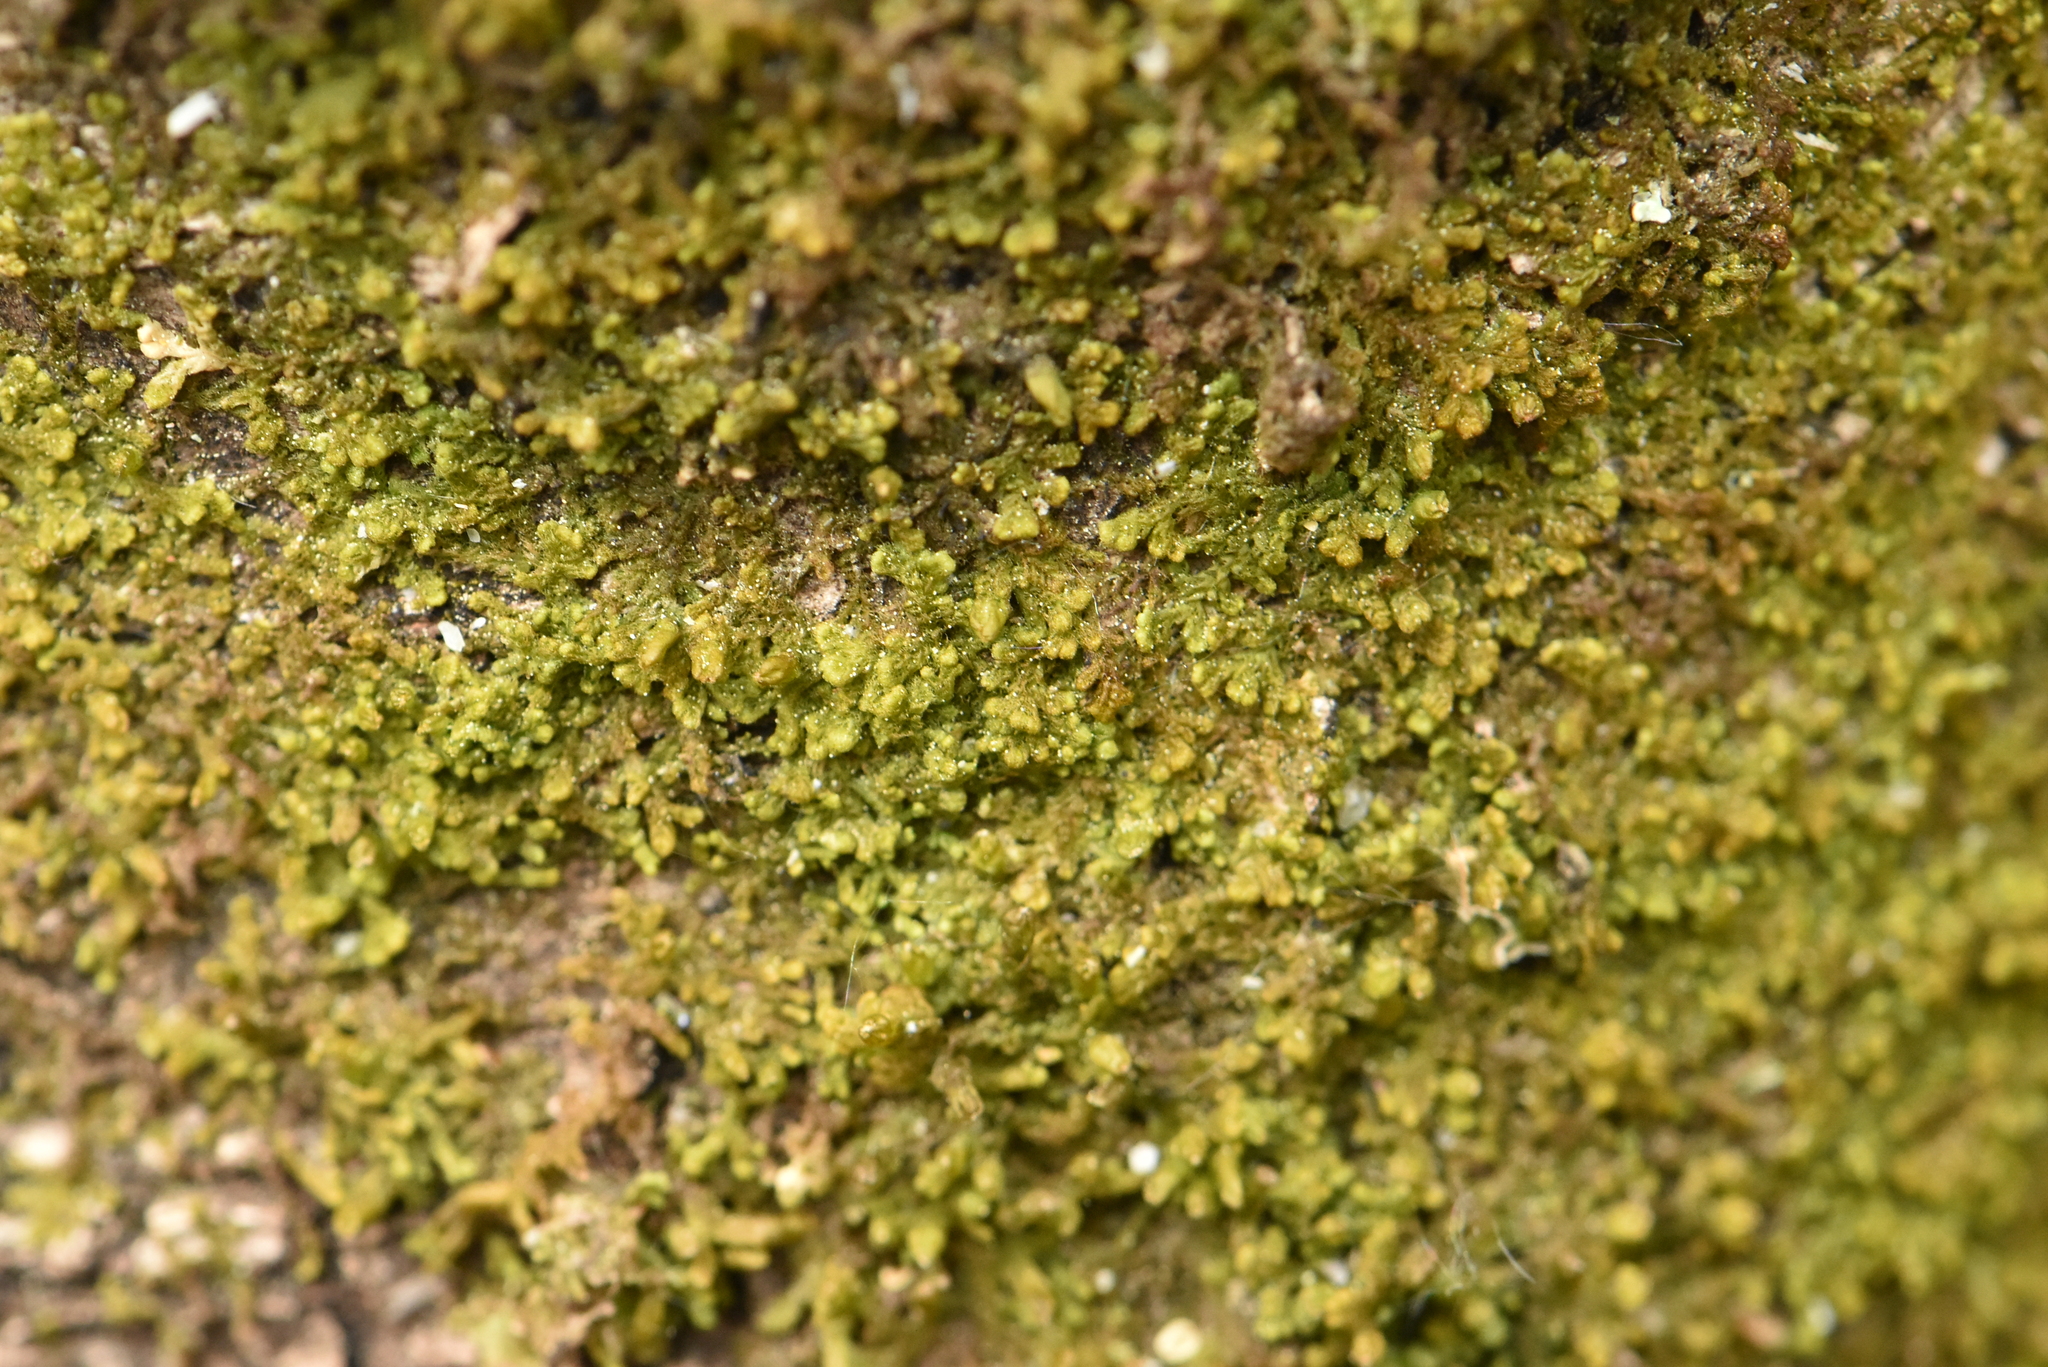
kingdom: Plantae
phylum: Marchantiophyta
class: Jungermanniopsida
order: Ptilidiales
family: Ptilidiaceae
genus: Ptilidium
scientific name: Ptilidium pulcherrimum
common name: Tree fringewort
